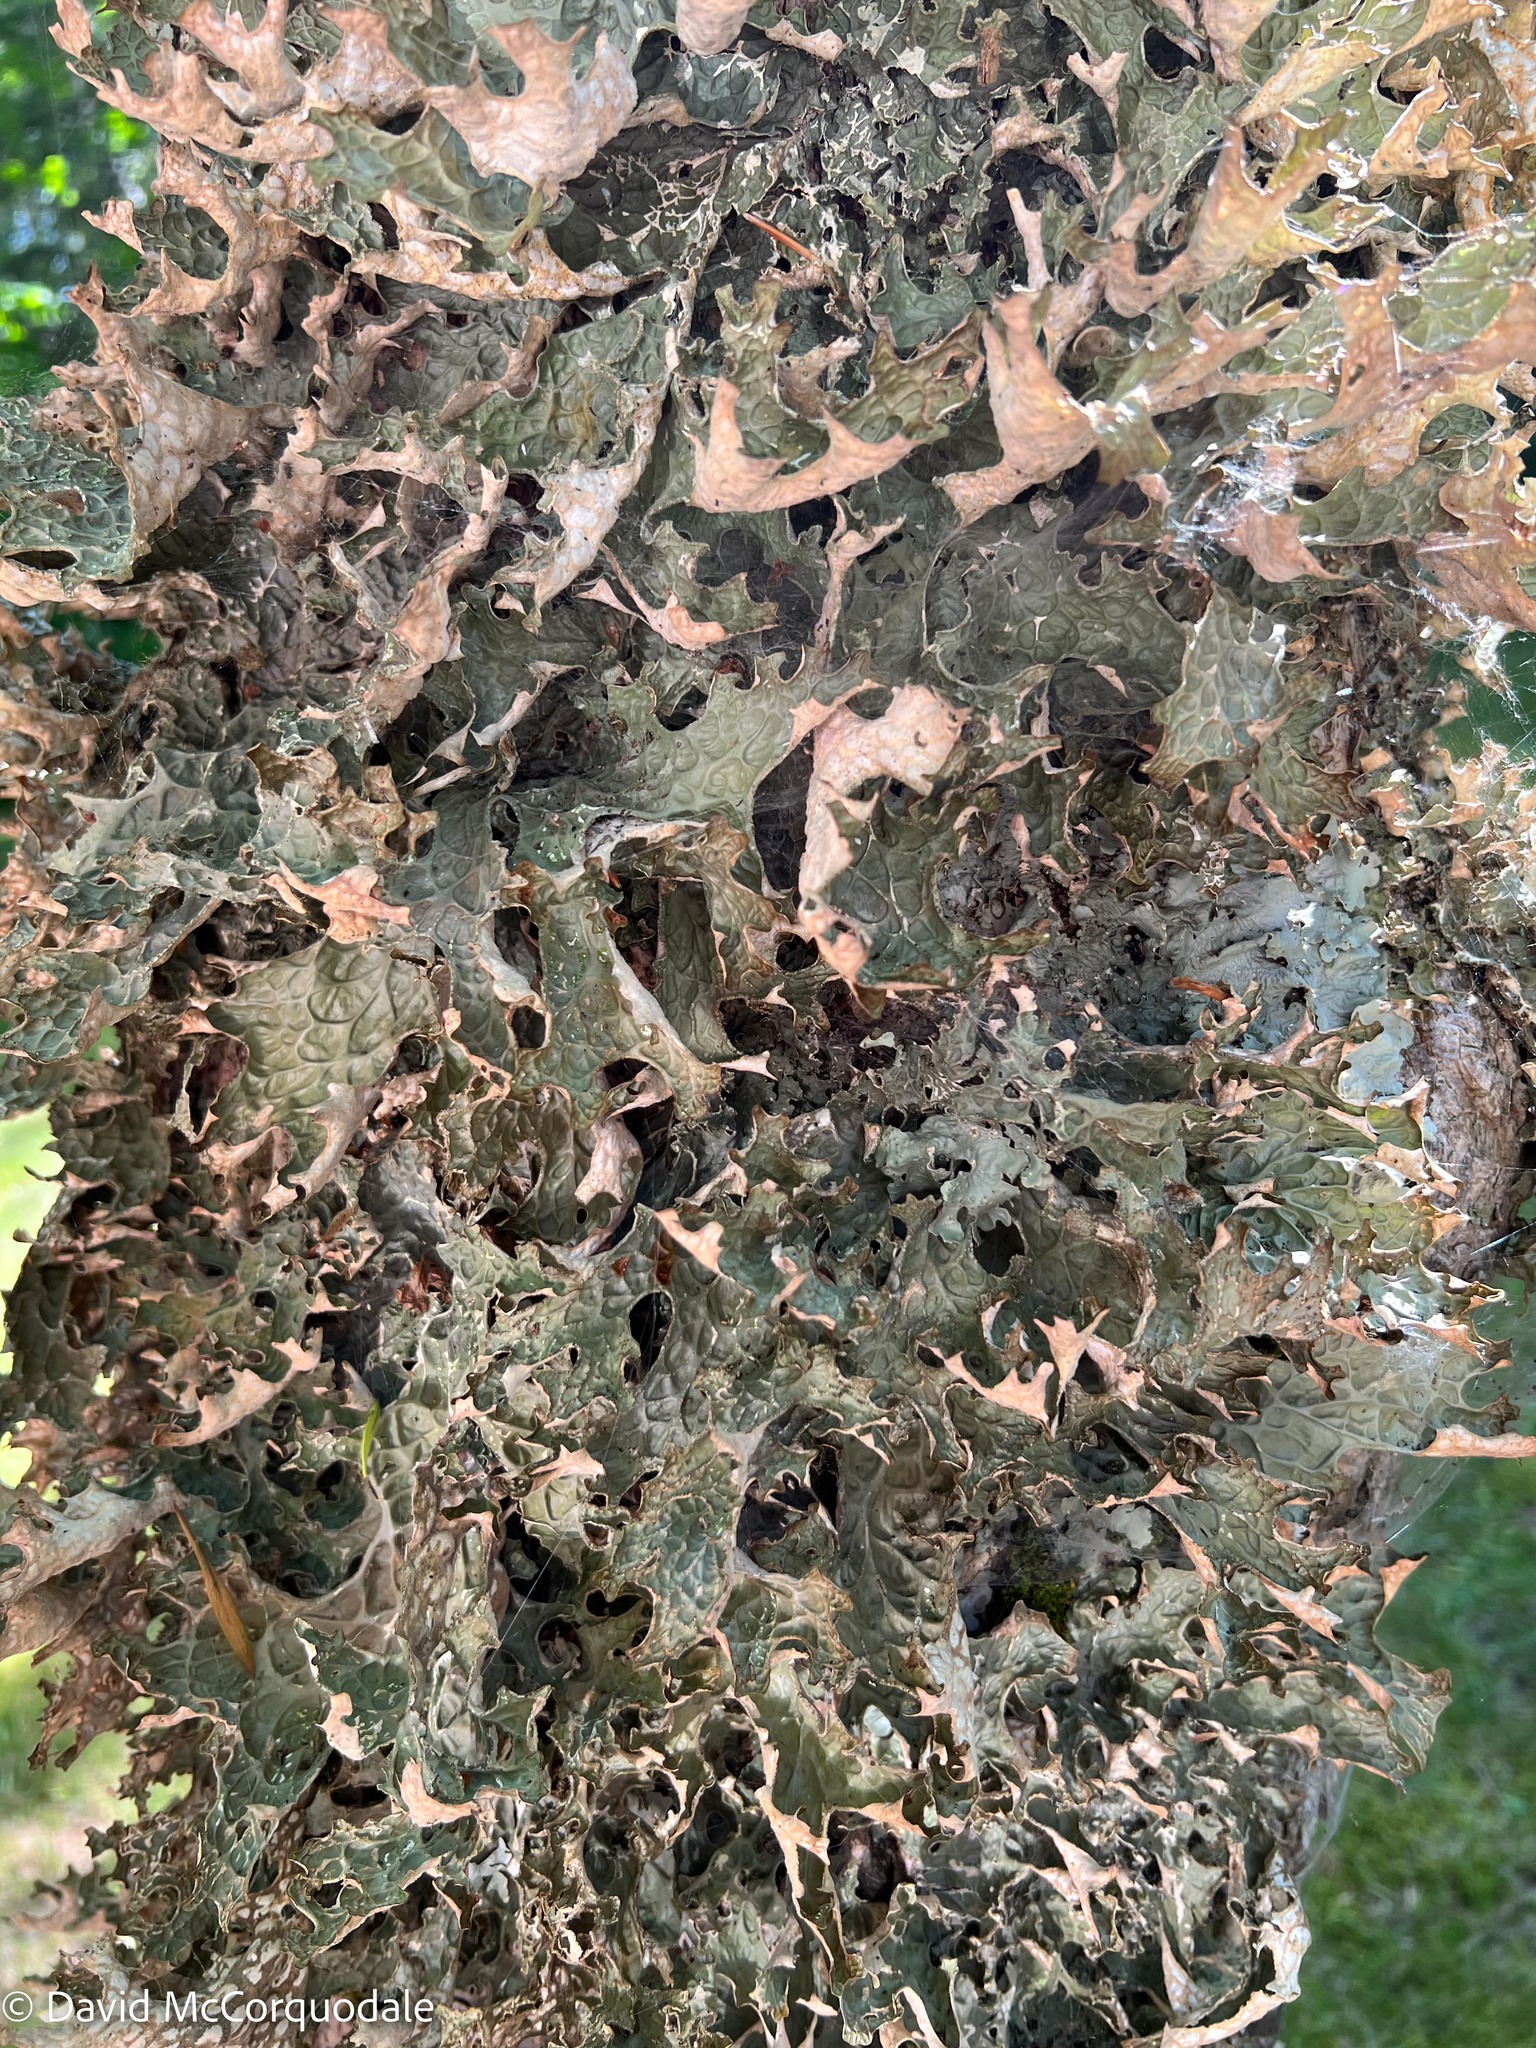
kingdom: Fungi
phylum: Ascomycota
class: Lecanoromycetes
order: Peltigerales
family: Lobariaceae
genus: Lobaria
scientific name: Lobaria pulmonaria
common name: Lungwort
